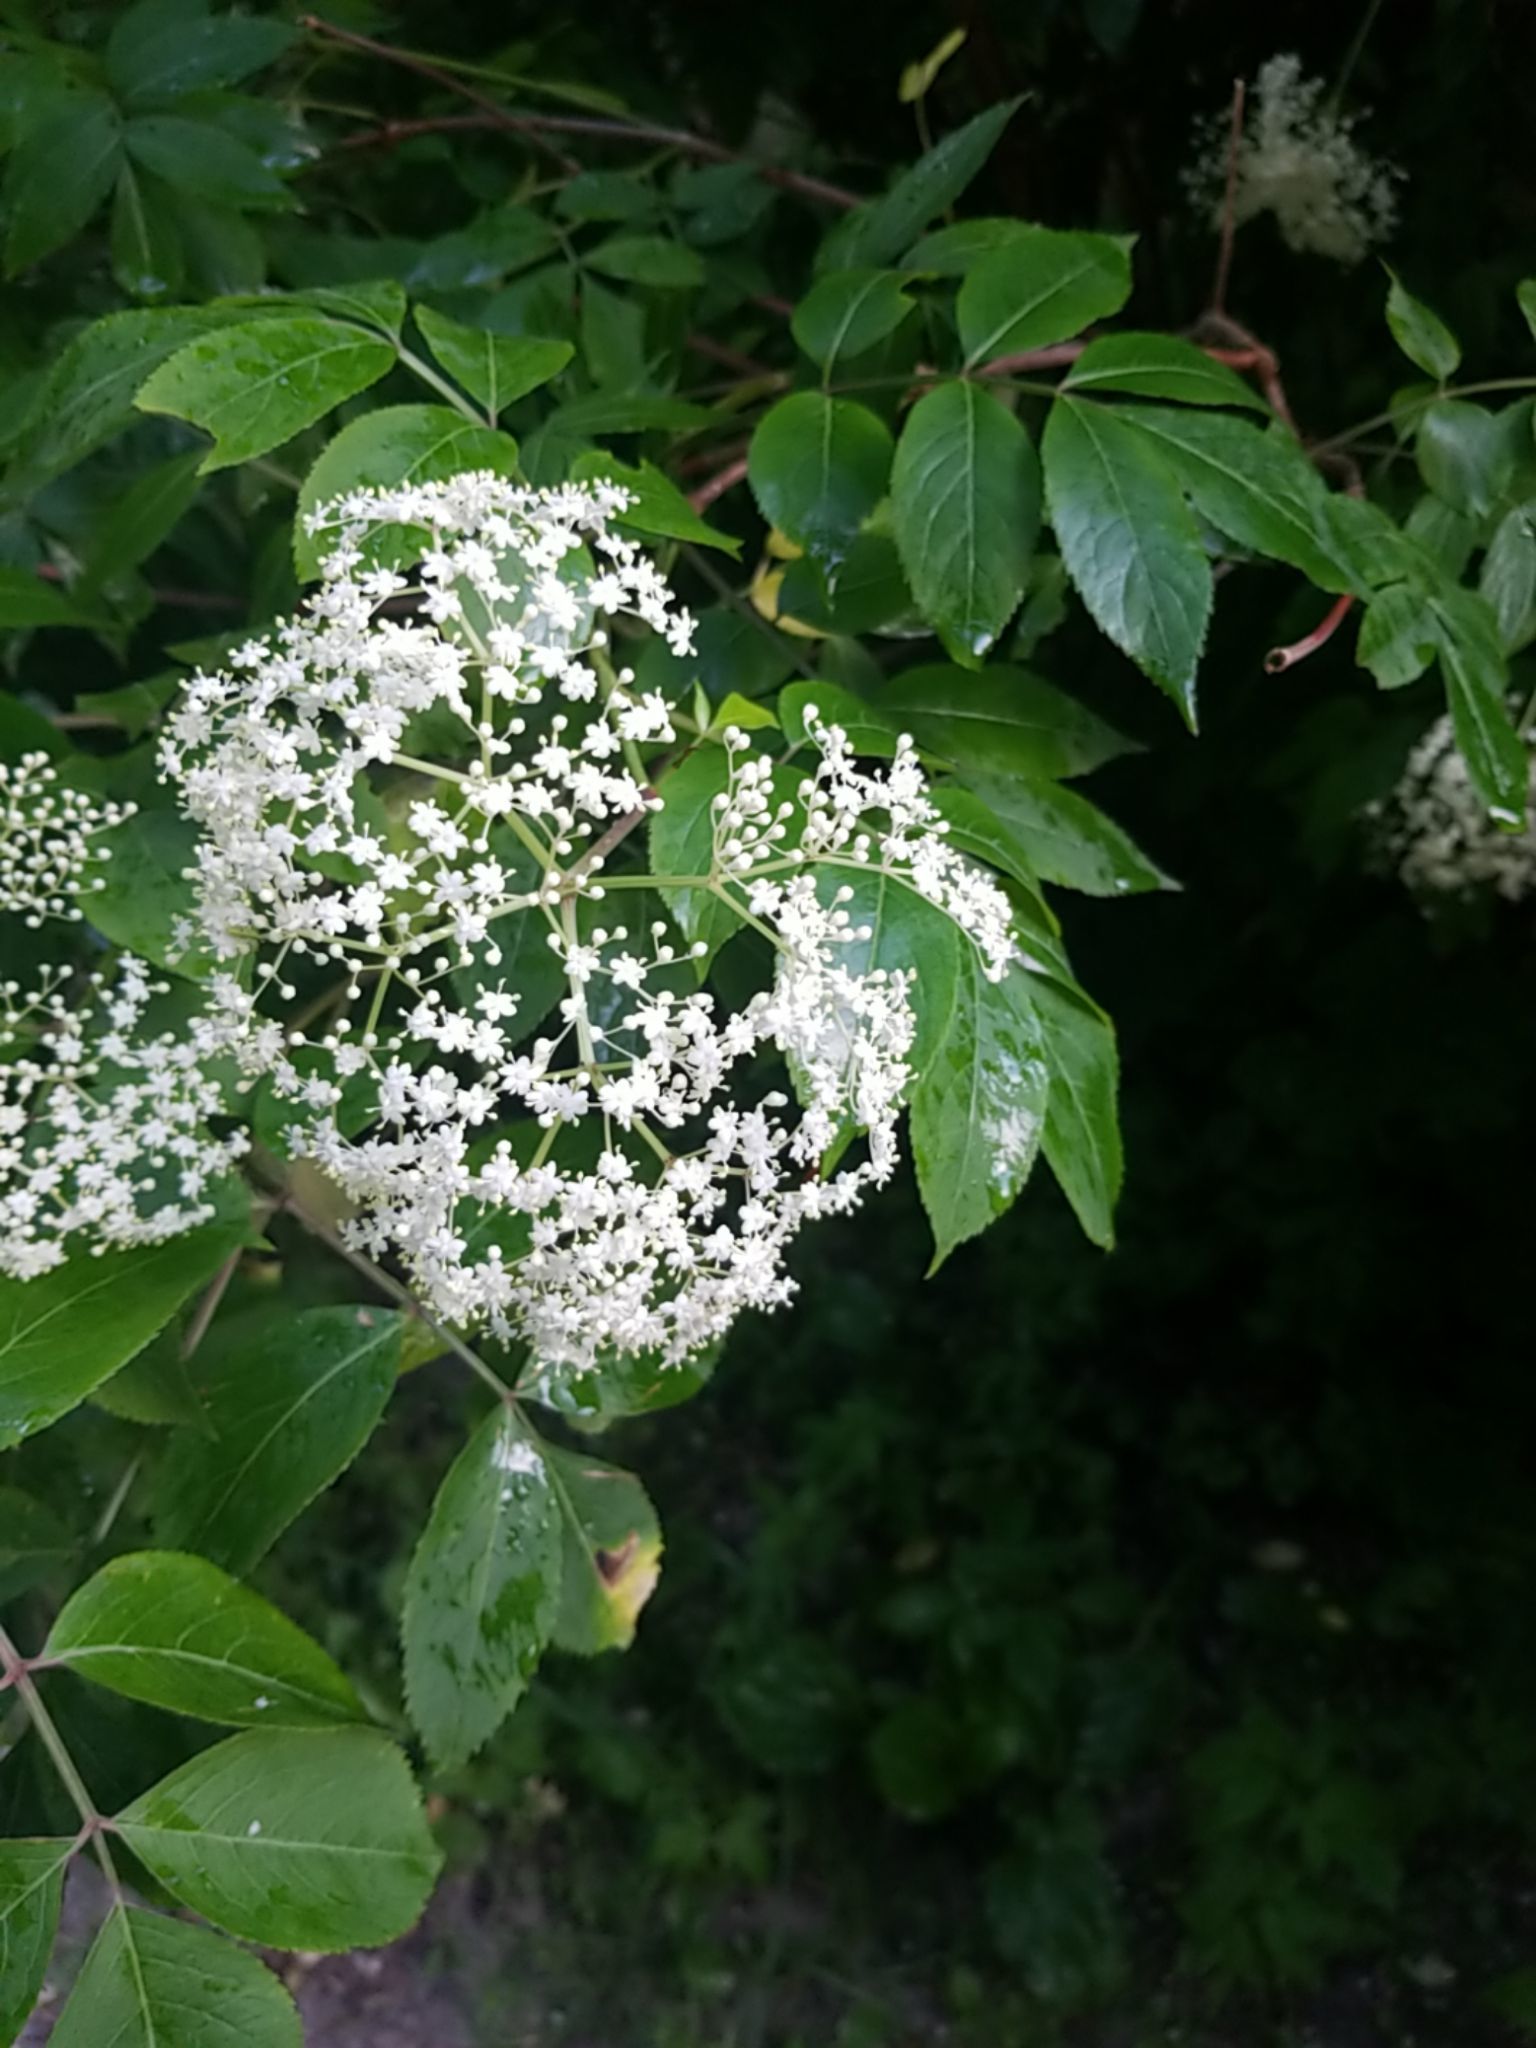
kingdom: Plantae
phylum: Tracheophyta
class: Magnoliopsida
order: Dipsacales
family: Viburnaceae
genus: Sambucus
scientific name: Sambucus canadensis
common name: American elder
